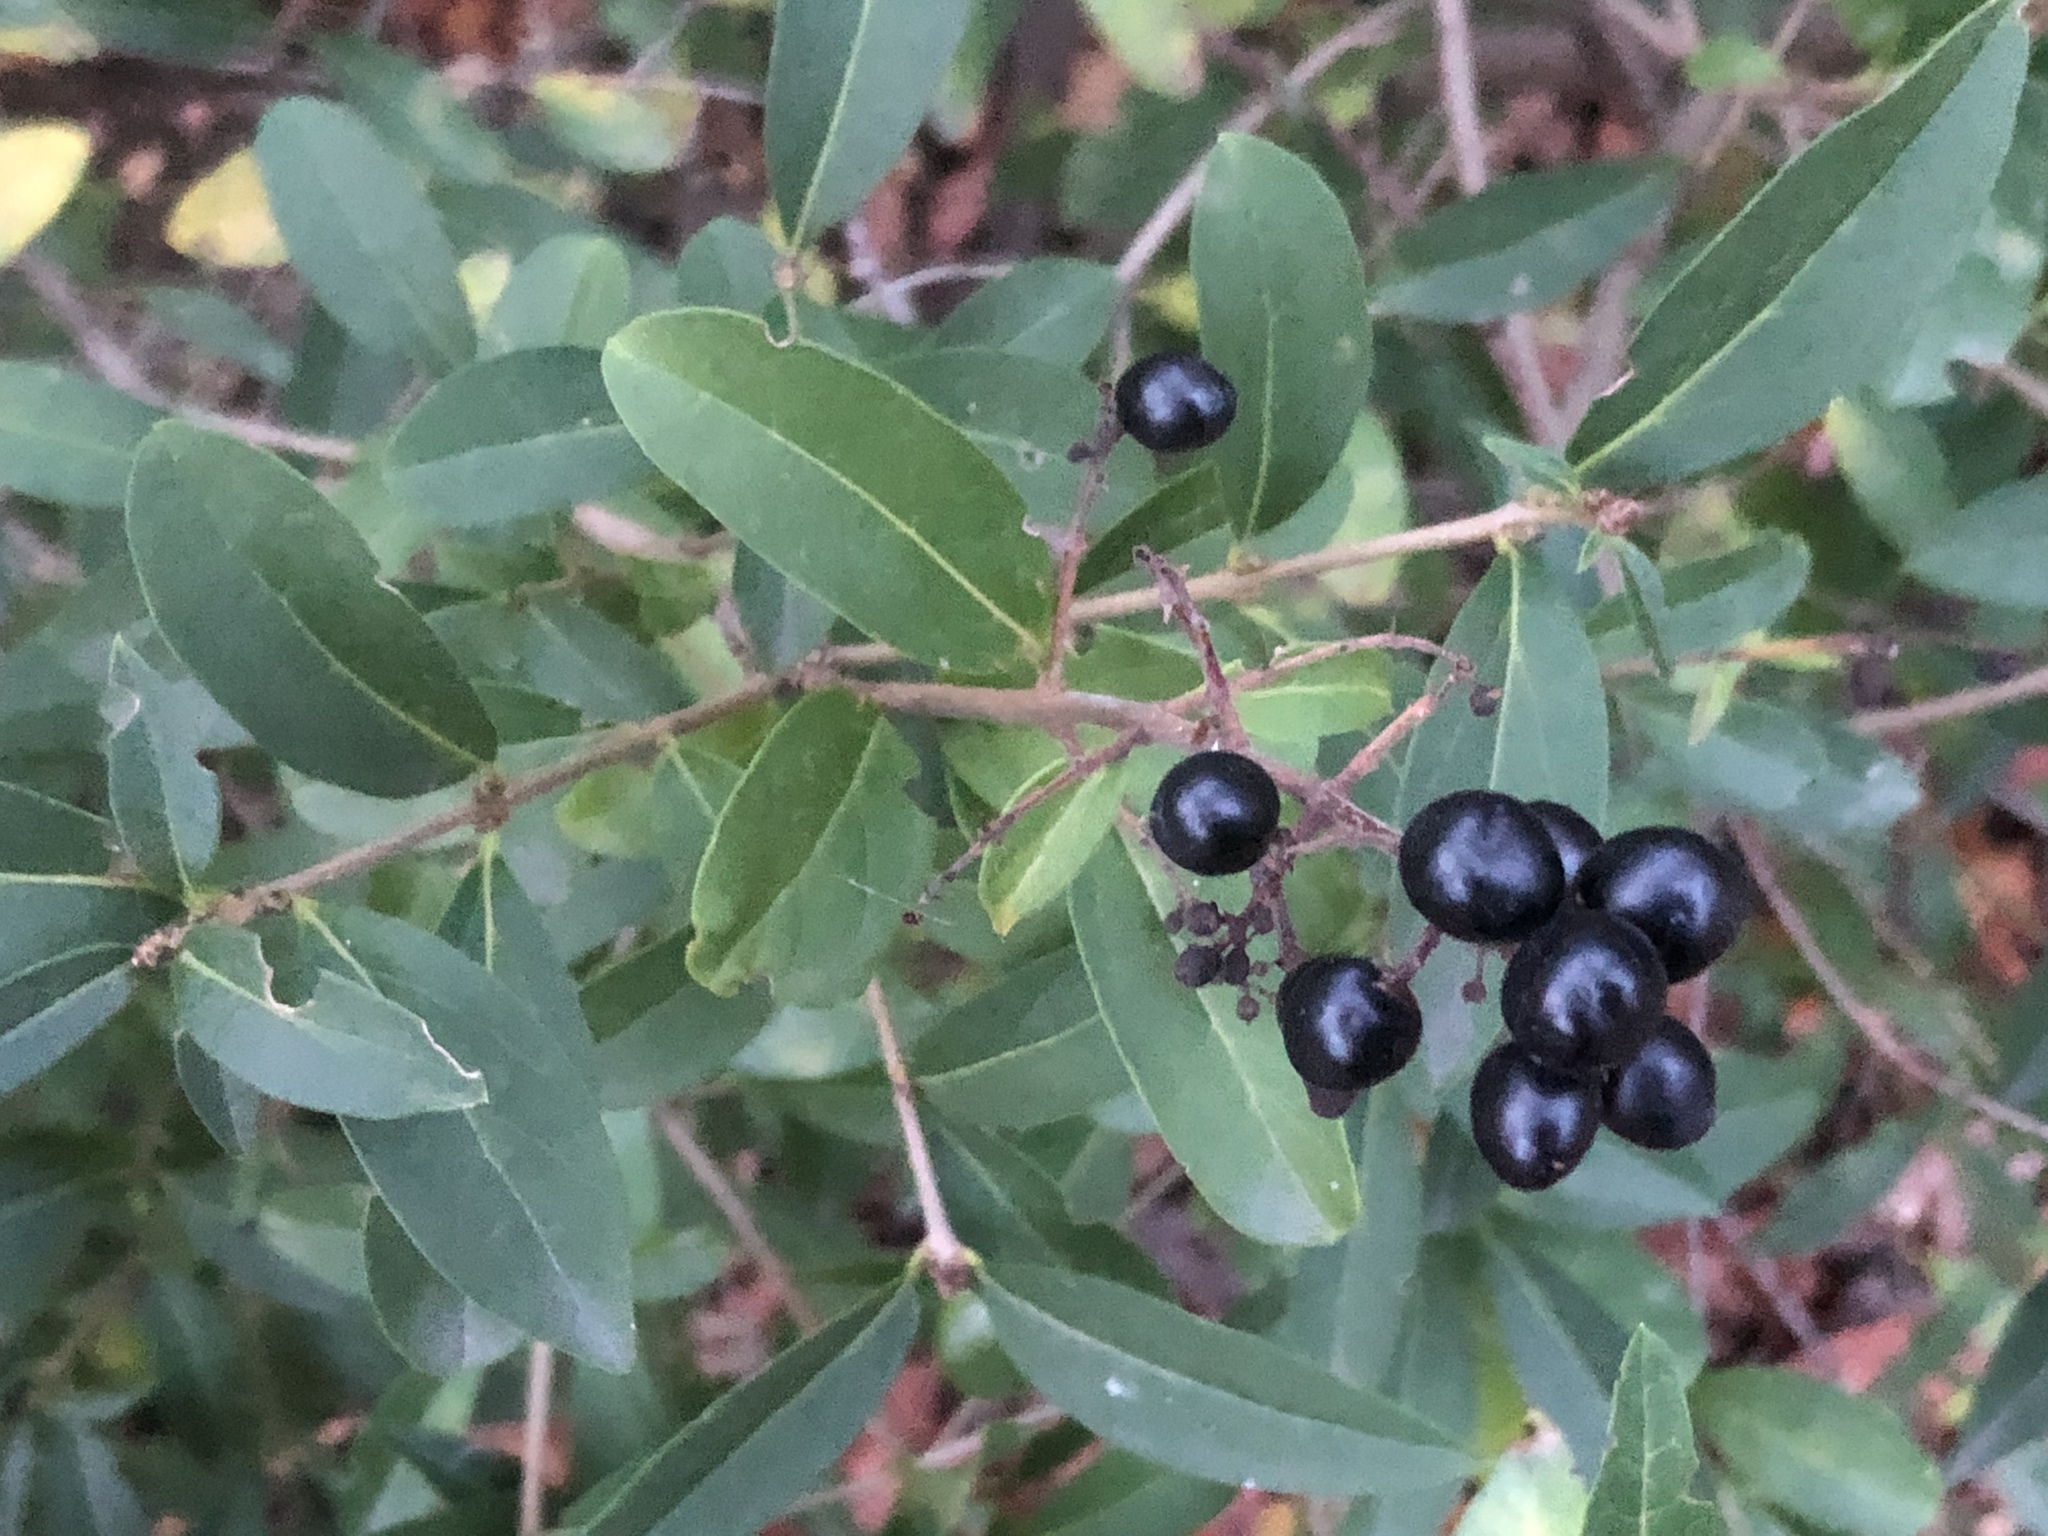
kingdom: Plantae
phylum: Tracheophyta
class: Magnoliopsida
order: Lamiales
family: Oleaceae
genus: Ligustrum
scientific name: Ligustrum vulgare
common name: Wild privet
